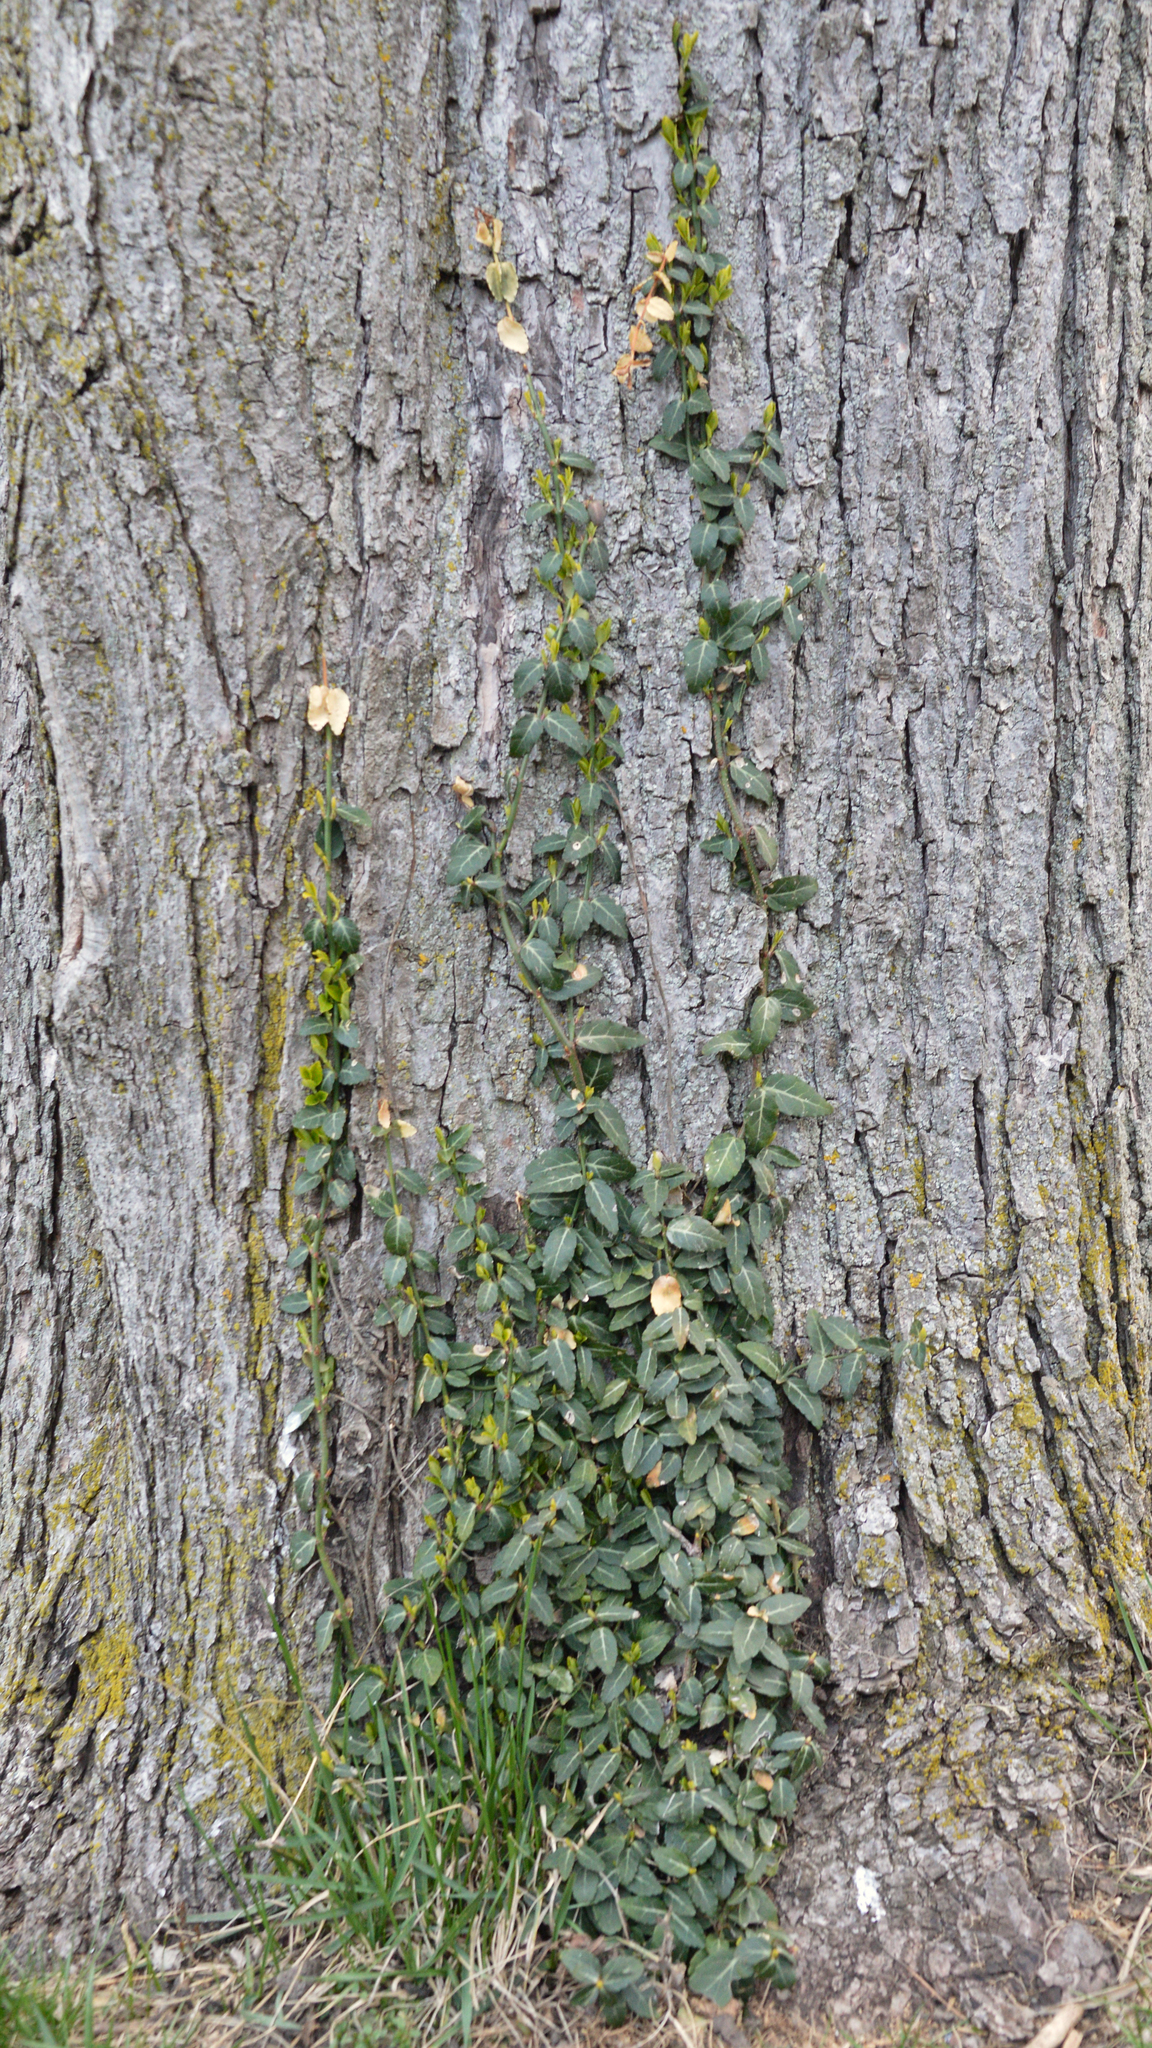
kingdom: Plantae
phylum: Tracheophyta
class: Magnoliopsida
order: Celastrales
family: Celastraceae
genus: Euonymus
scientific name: Euonymus fortunei
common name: Climbing euonymus
